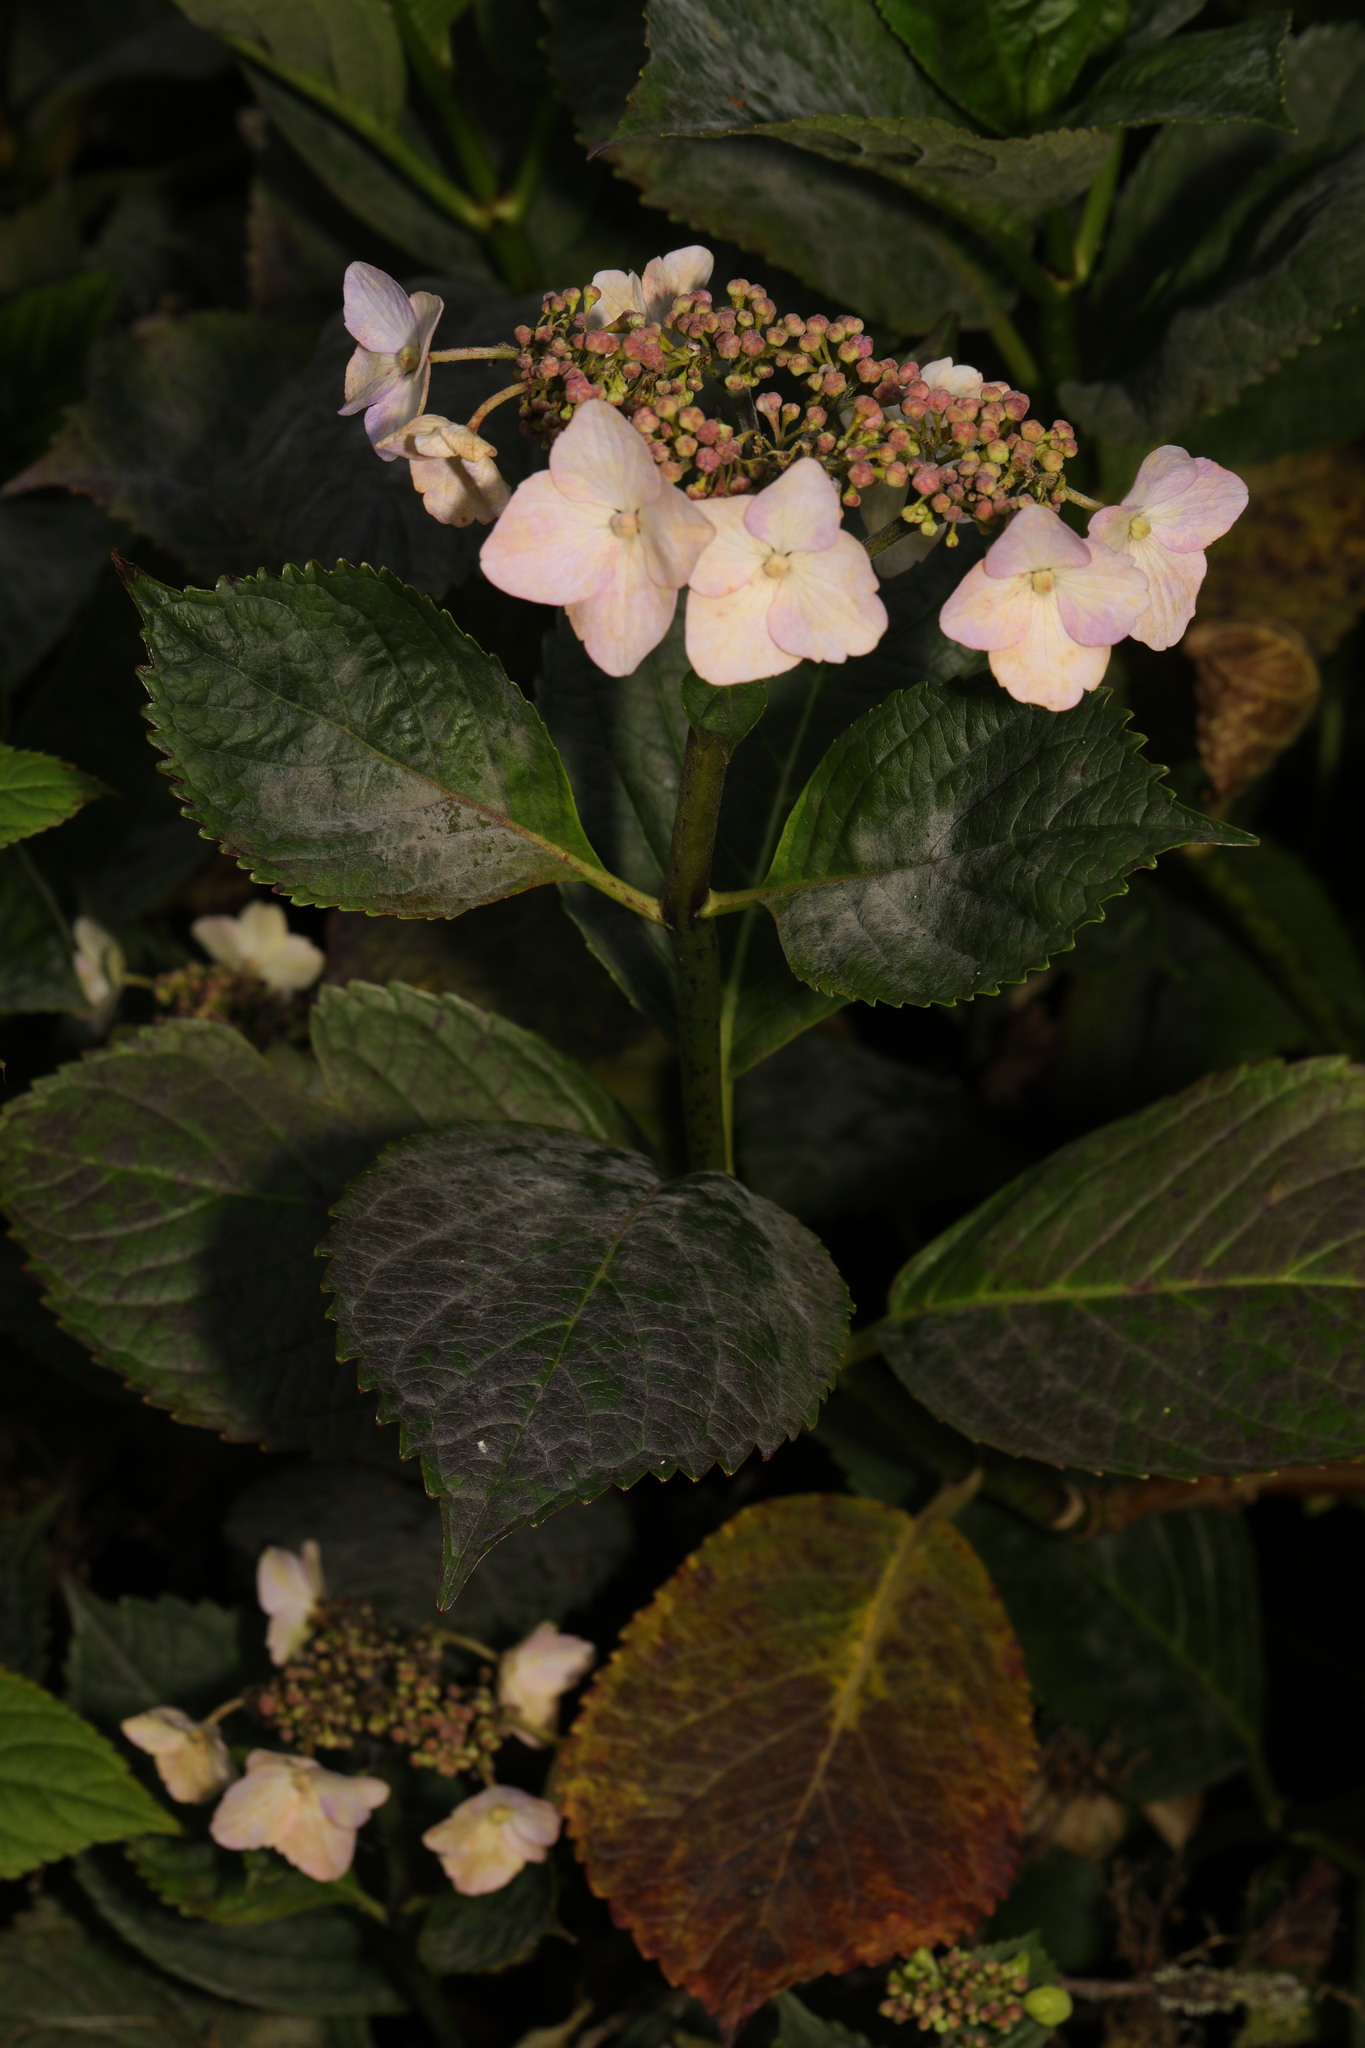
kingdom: Plantae
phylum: Tracheophyta
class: Magnoliopsida
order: Cornales
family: Hydrangeaceae
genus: Hydrangea
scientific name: Hydrangea macrophylla
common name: Hydrangea
